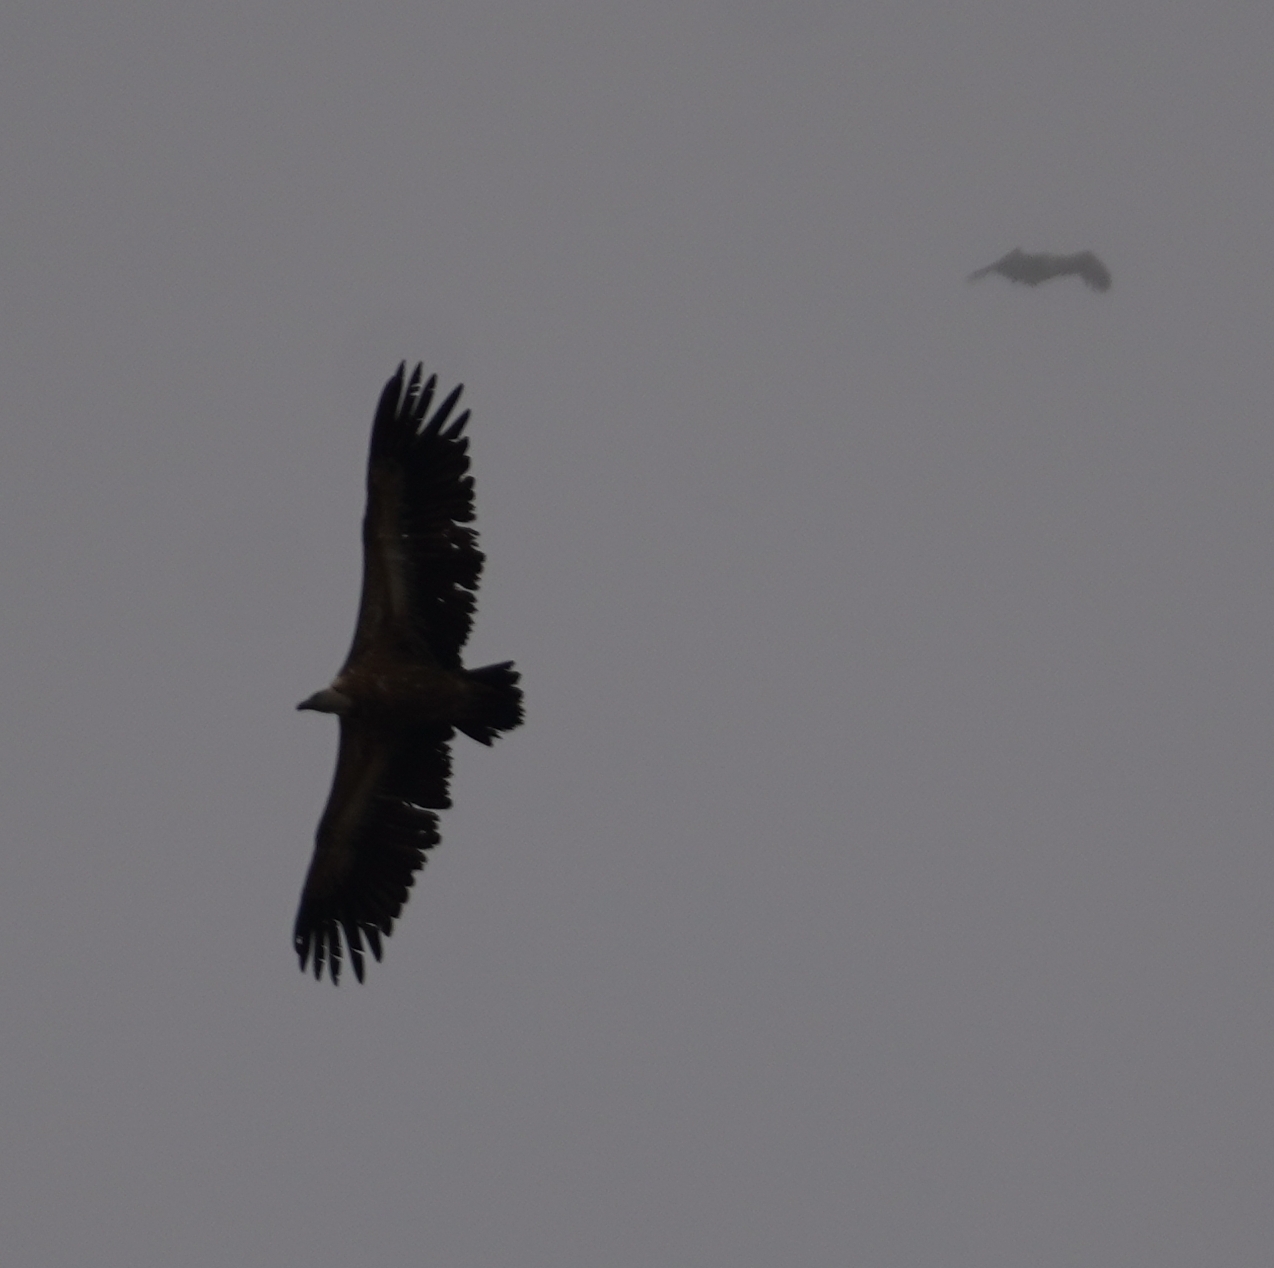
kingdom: Animalia
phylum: Chordata
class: Aves
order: Accipitriformes
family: Accipitridae
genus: Gyps
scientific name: Gyps fulvus
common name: Griffon vulture
